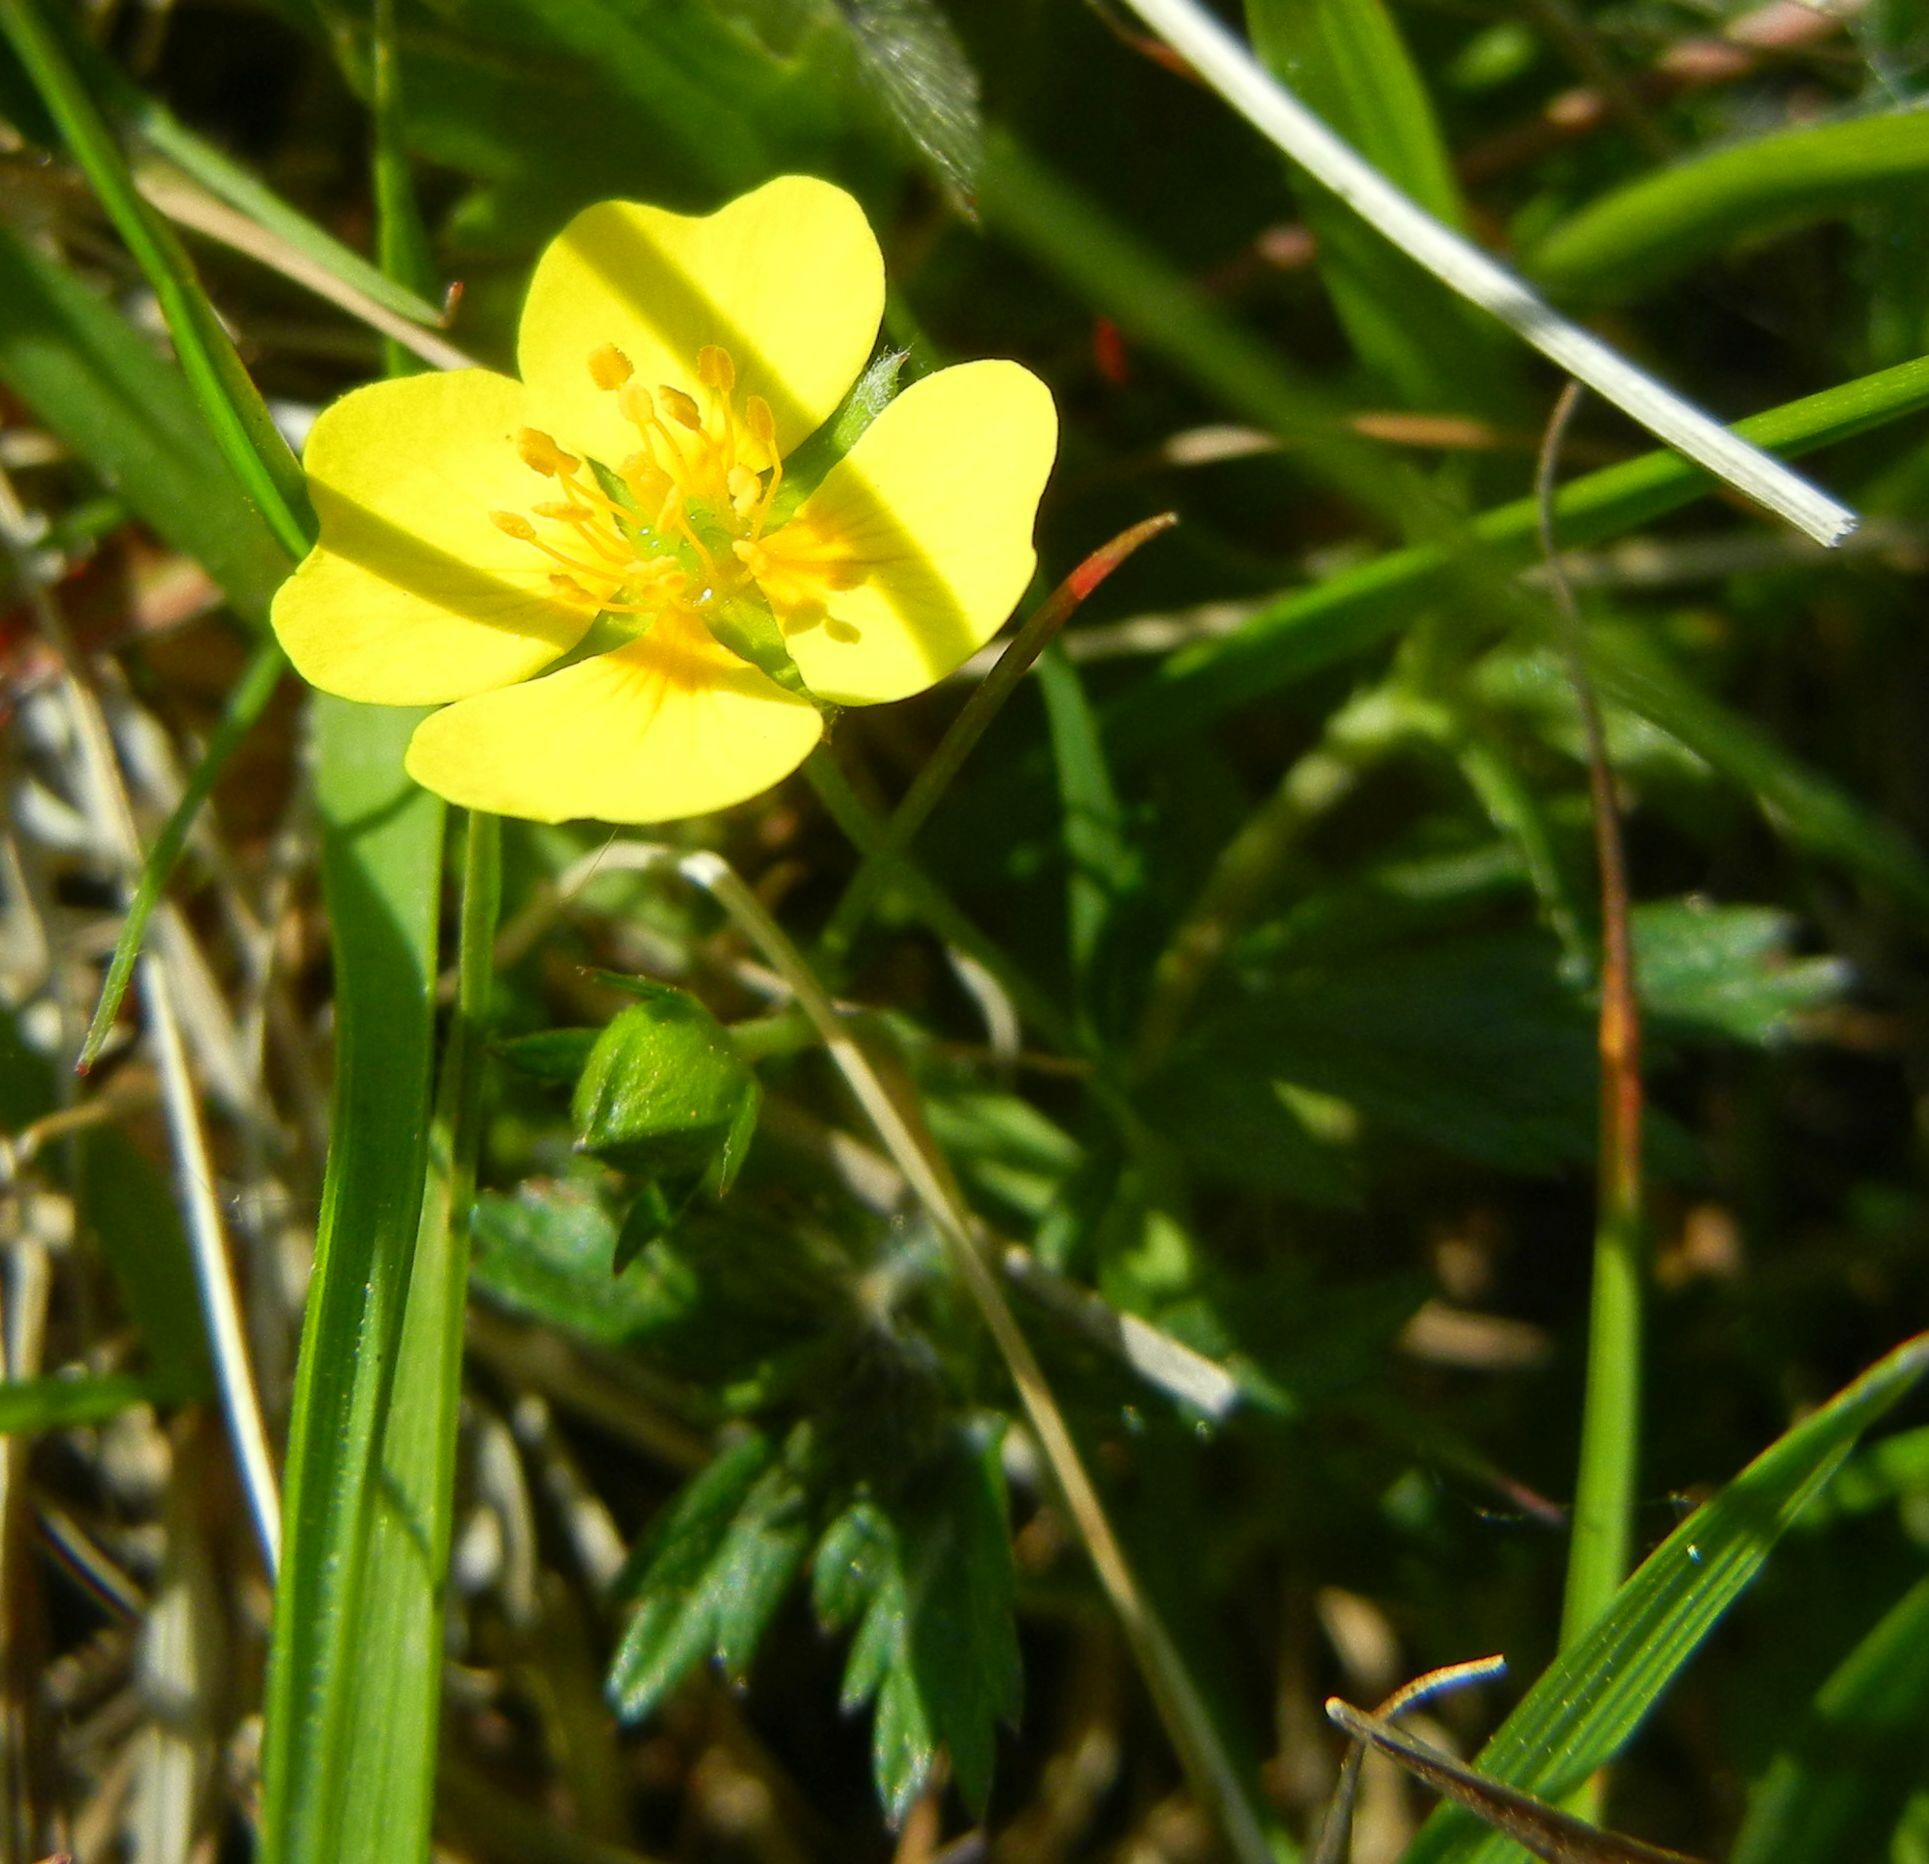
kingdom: Plantae
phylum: Tracheophyta
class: Magnoliopsida
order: Rosales
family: Rosaceae
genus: Potentilla
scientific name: Potentilla erecta
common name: Tormentil
